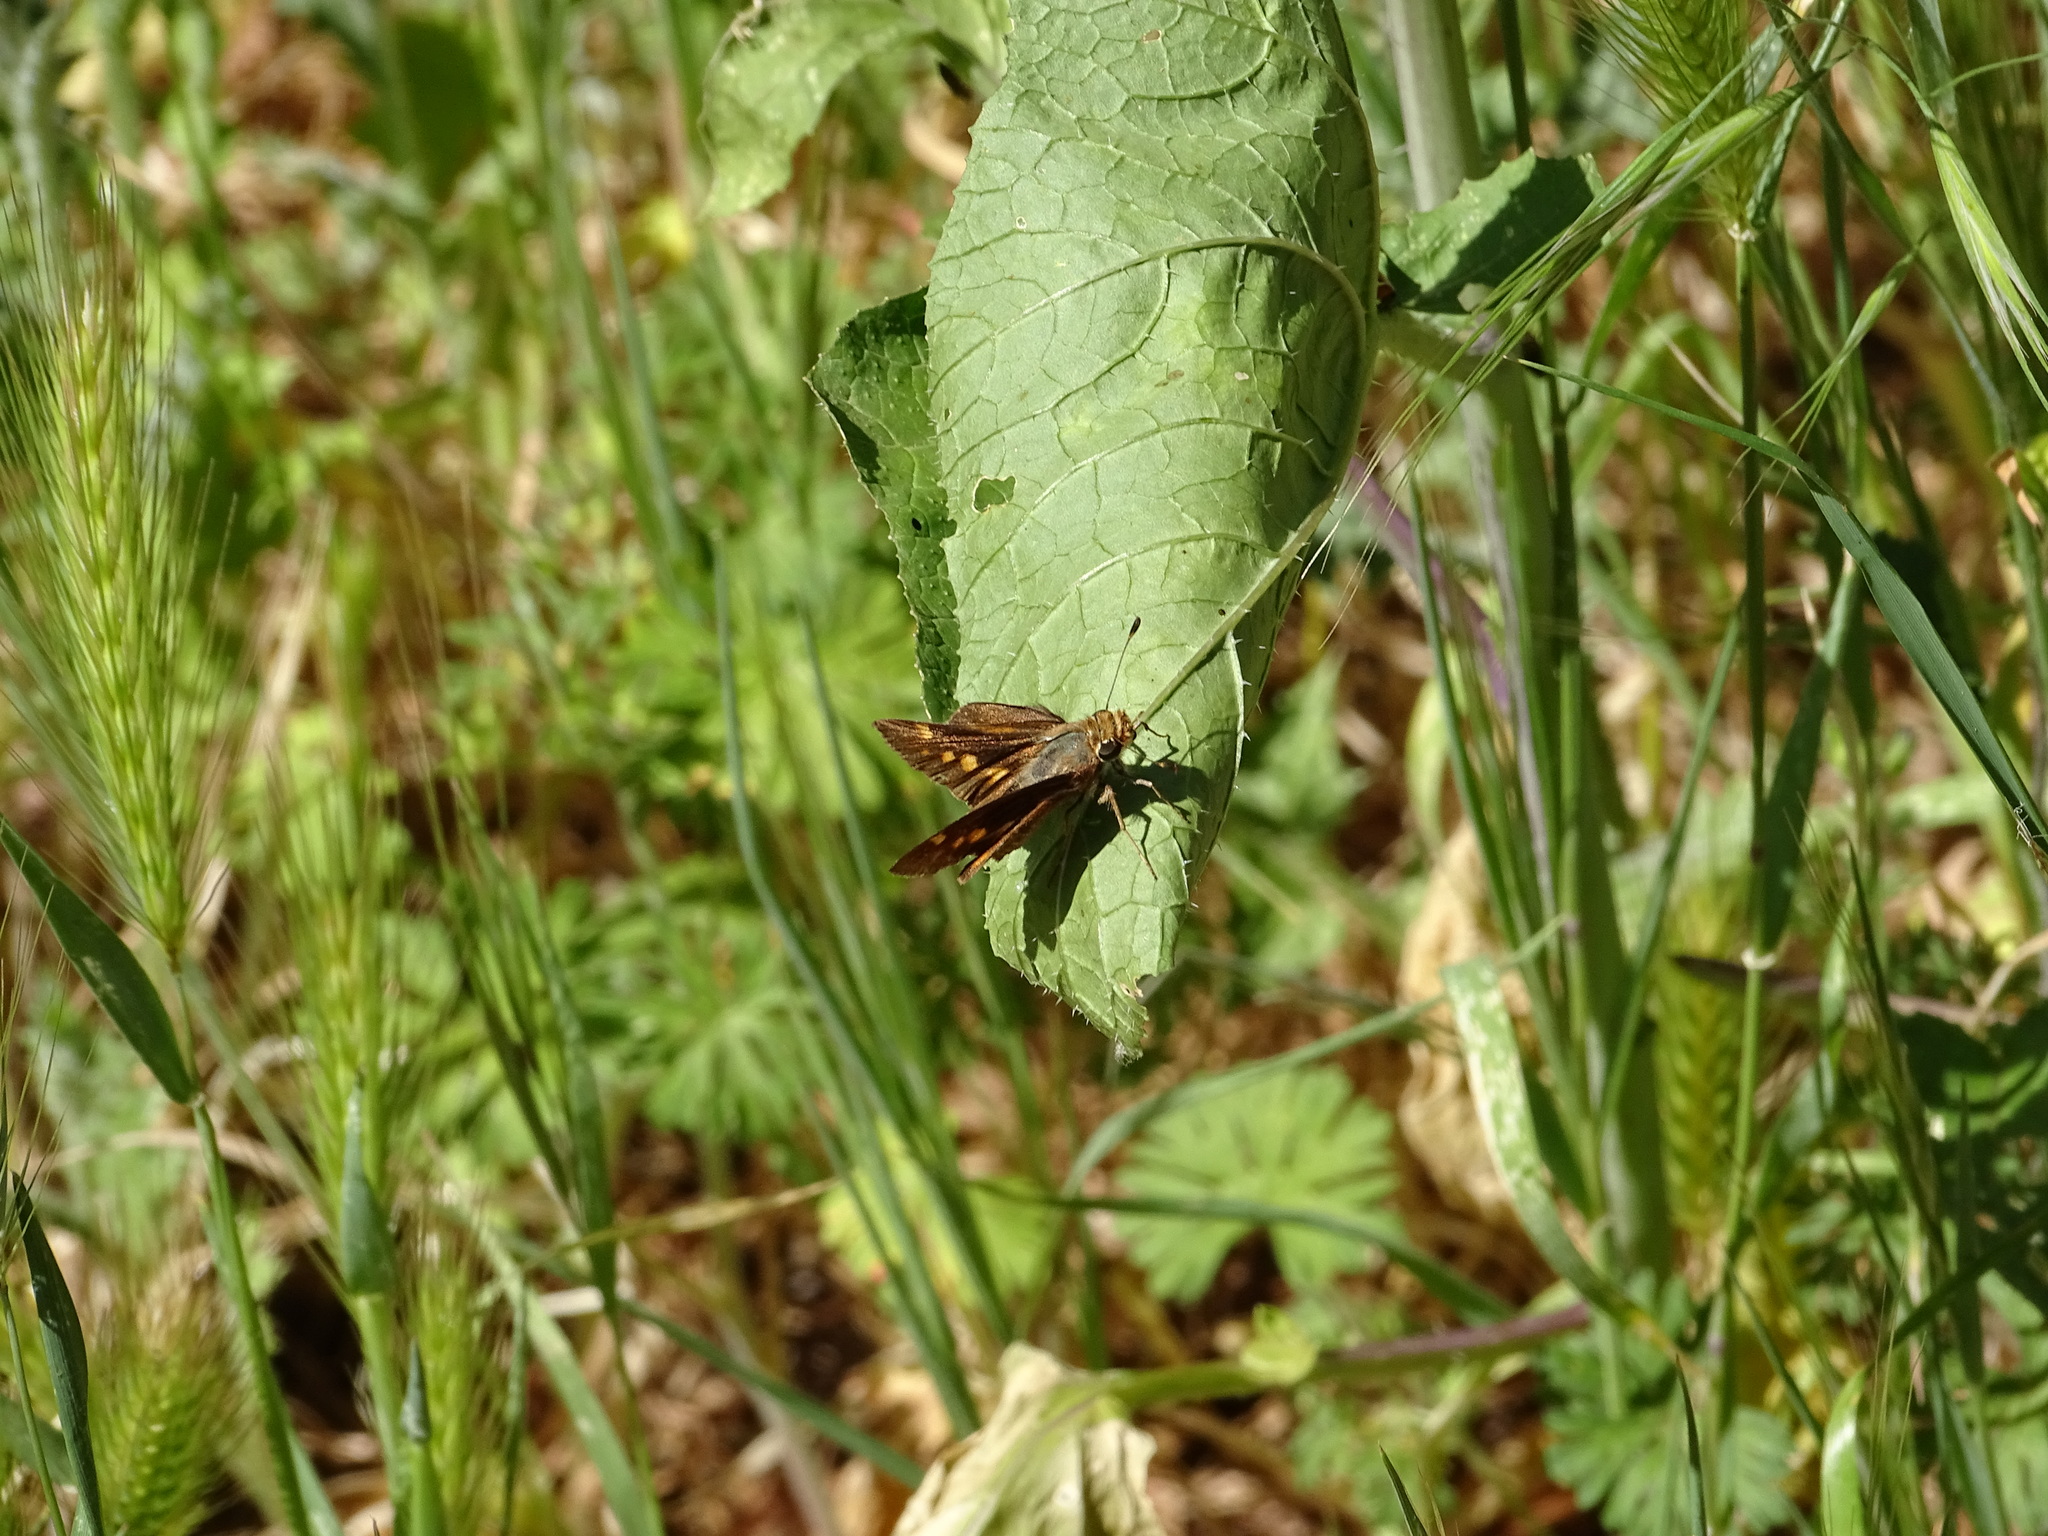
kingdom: Animalia
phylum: Arthropoda
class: Insecta
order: Lepidoptera
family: Hesperiidae
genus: Lon
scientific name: Lon melane
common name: Umber skipper
